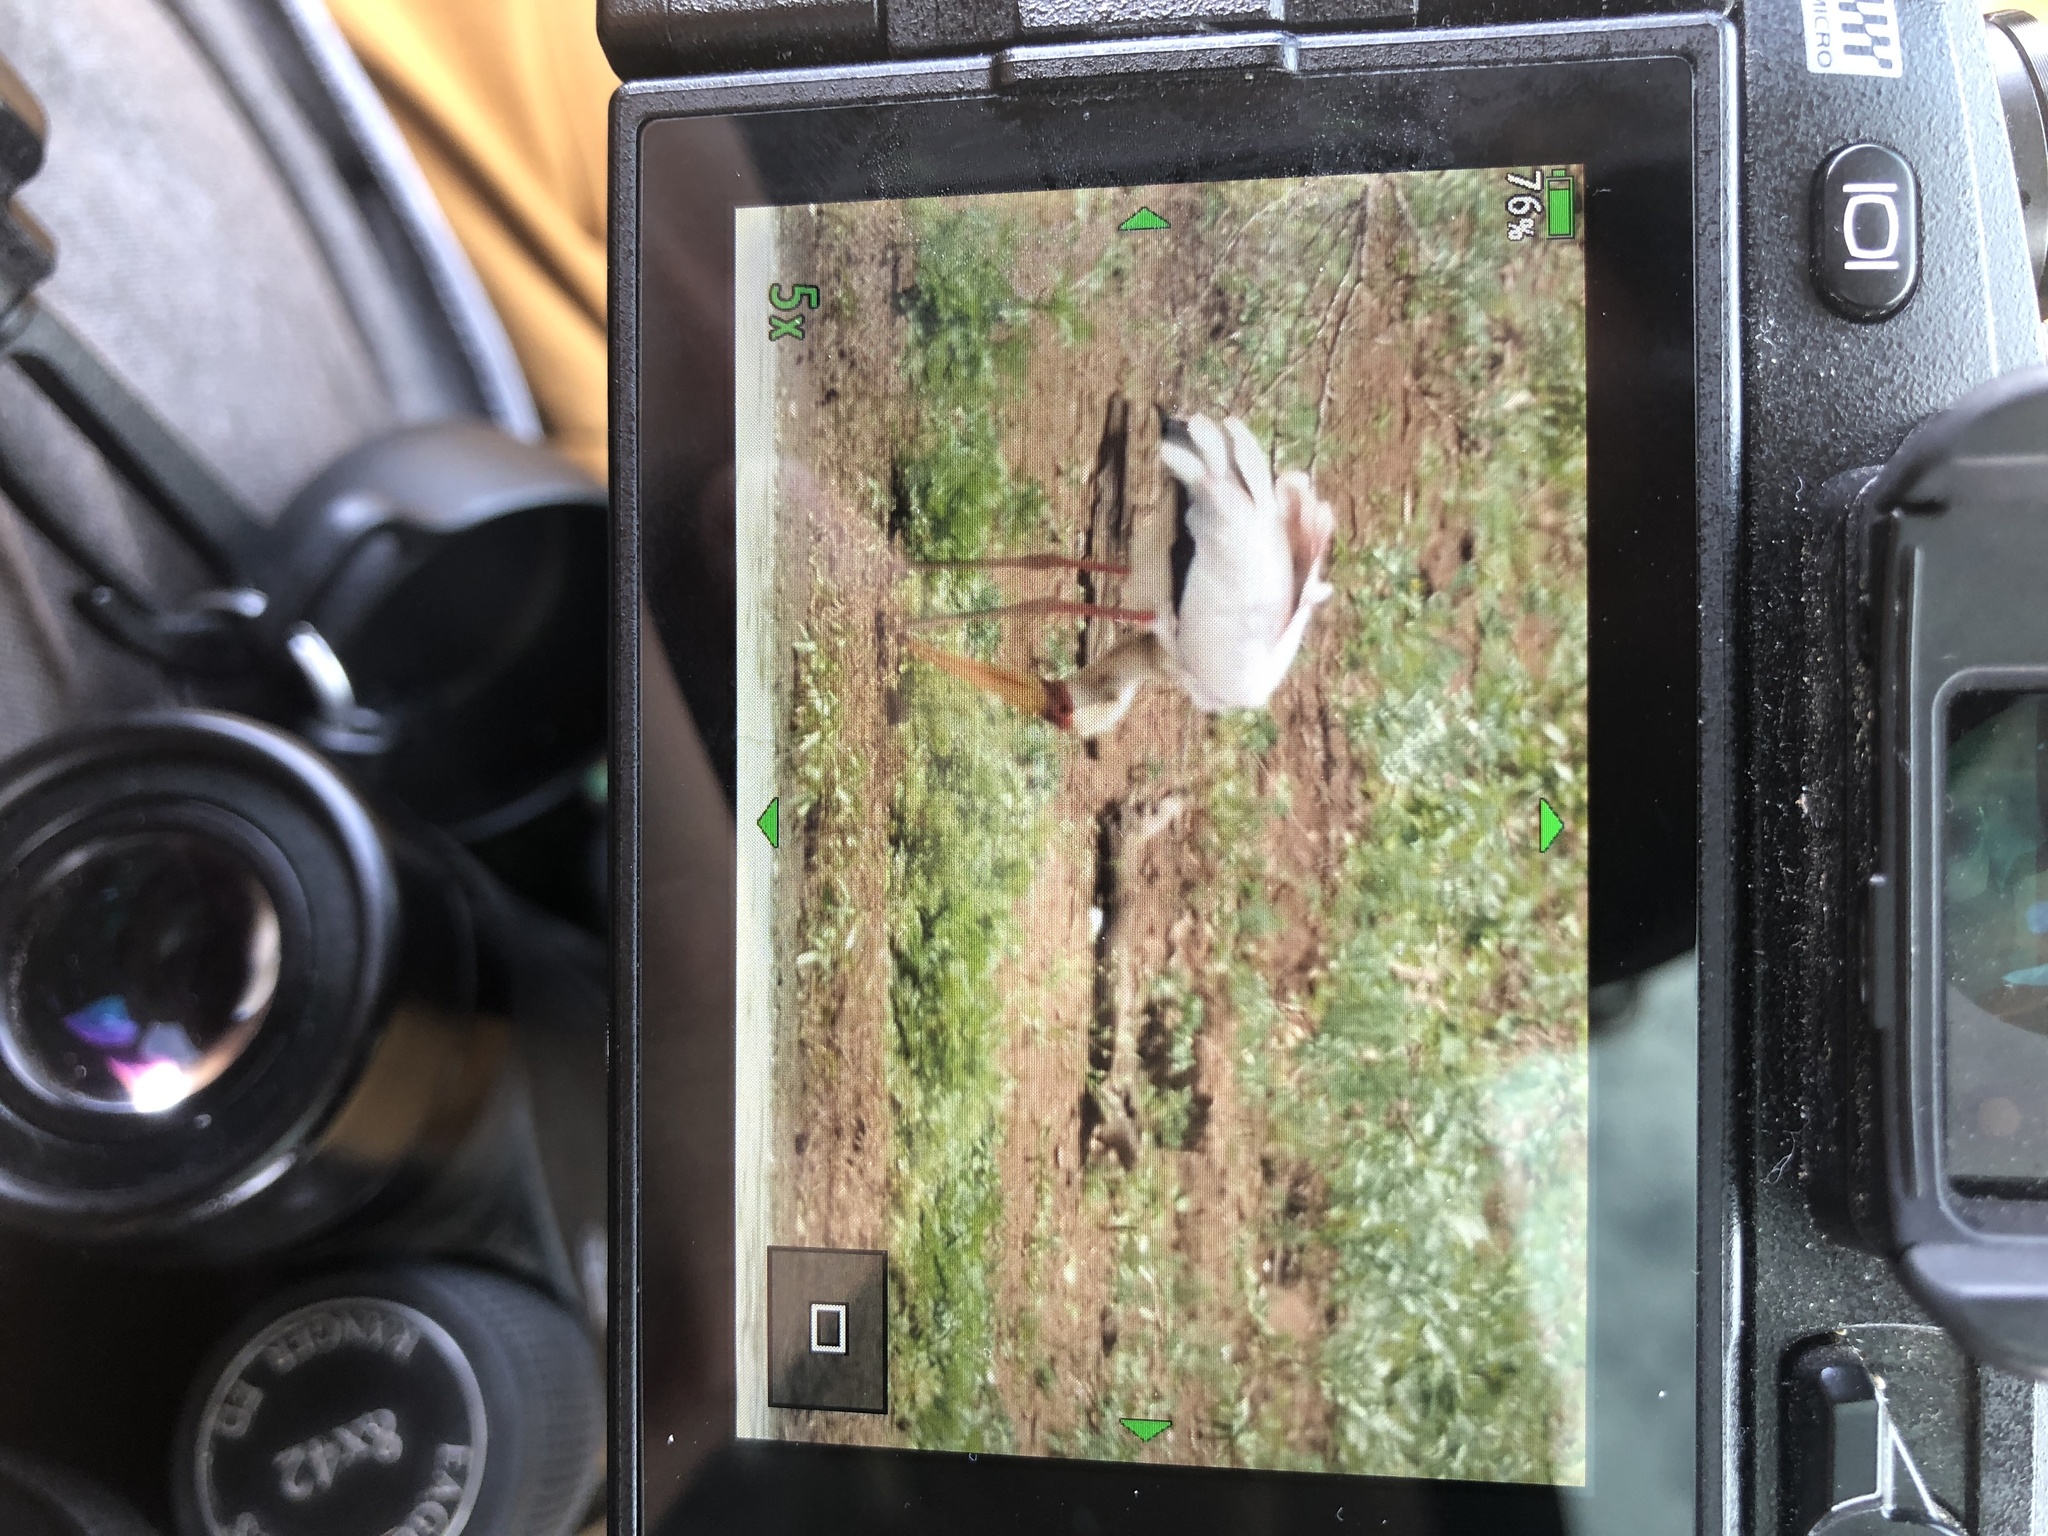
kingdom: Animalia
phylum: Chordata
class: Aves
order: Ciconiiformes
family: Ciconiidae
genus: Mycteria
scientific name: Mycteria ibis
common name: Yellow-billed stork
